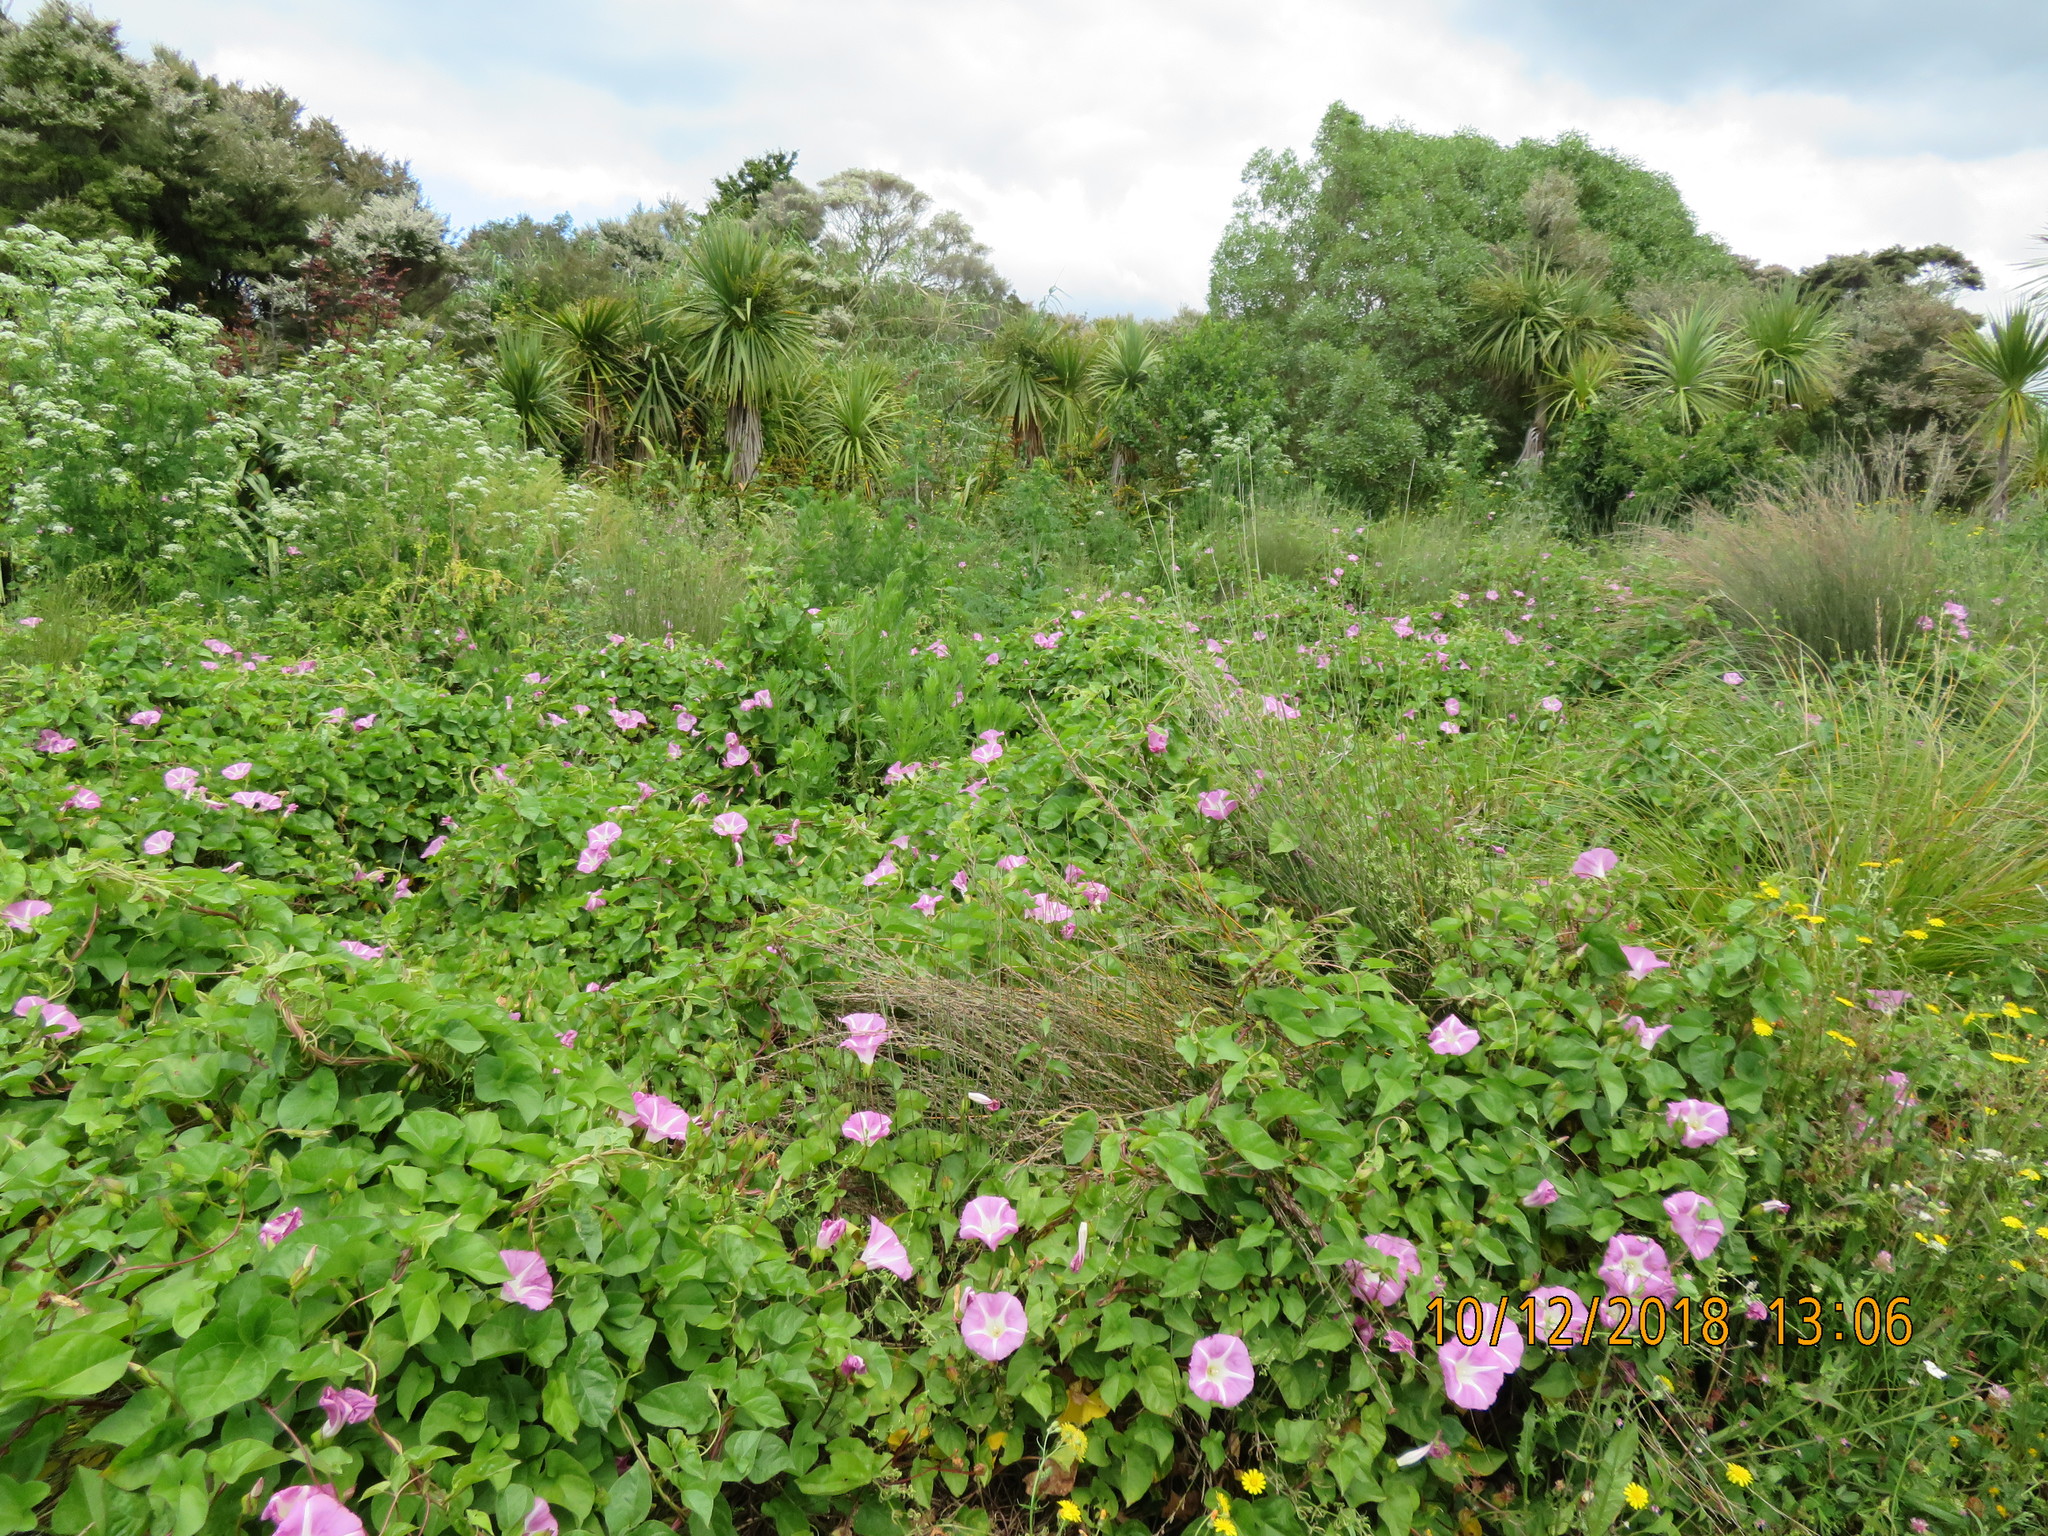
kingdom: Plantae
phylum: Tracheophyta
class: Liliopsida
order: Poales
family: Restionaceae
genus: Apodasmia
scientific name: Apodasmia similis
